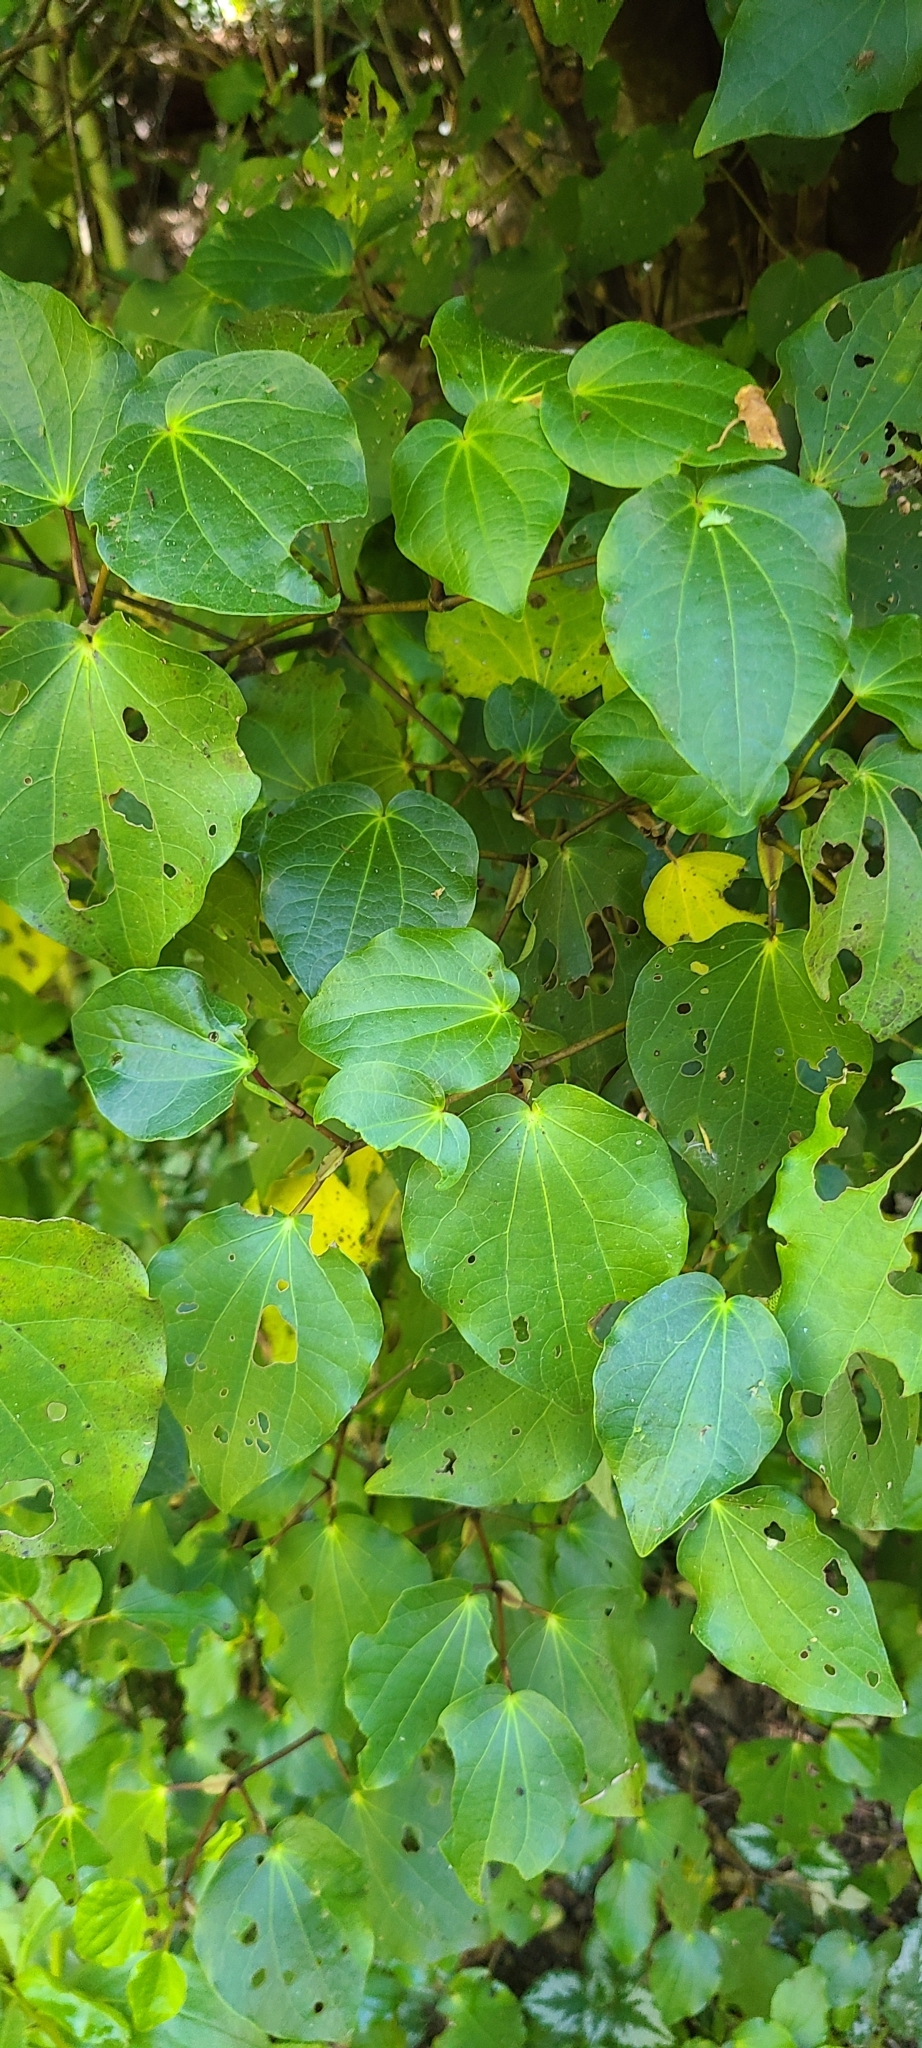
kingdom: Plantae
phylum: Tracheophyta
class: Magnoliopsida
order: Piperales
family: Piperaceae
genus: Macropiper
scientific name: Macropiper excelsum
